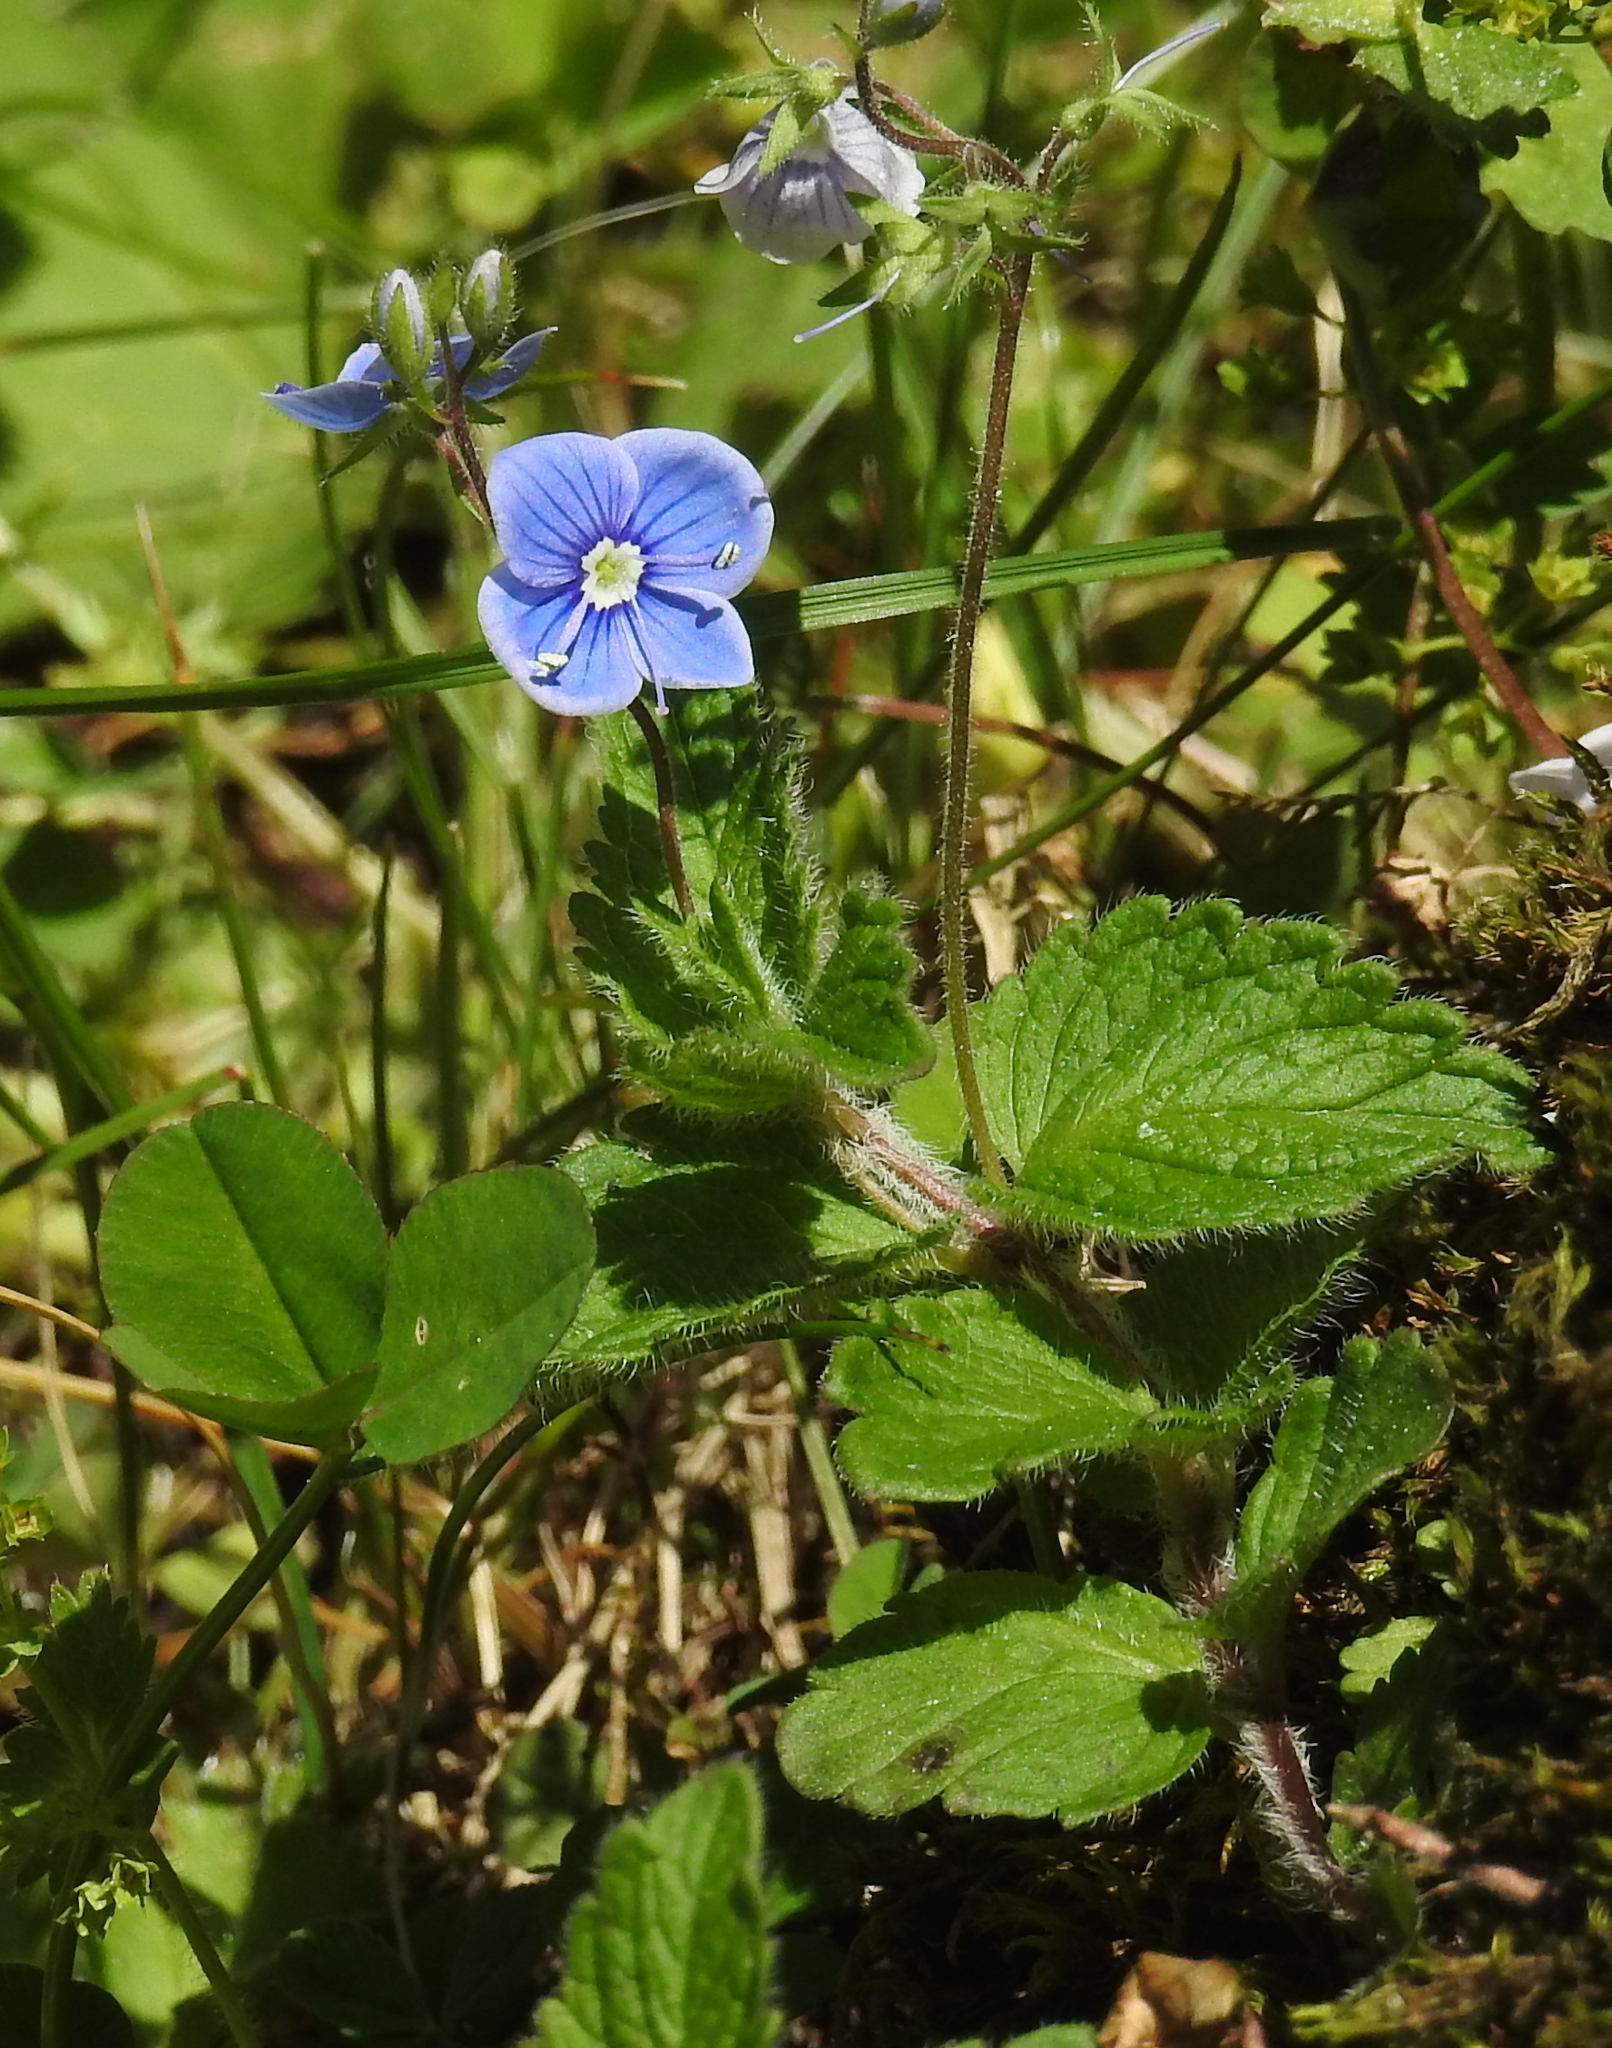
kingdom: Plantae
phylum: Tracheophyta
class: Magnoliopsida
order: Lamiales
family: Plantaginaceae
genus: Veronica
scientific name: Veronica chamaedrys
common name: Germander speedwell
